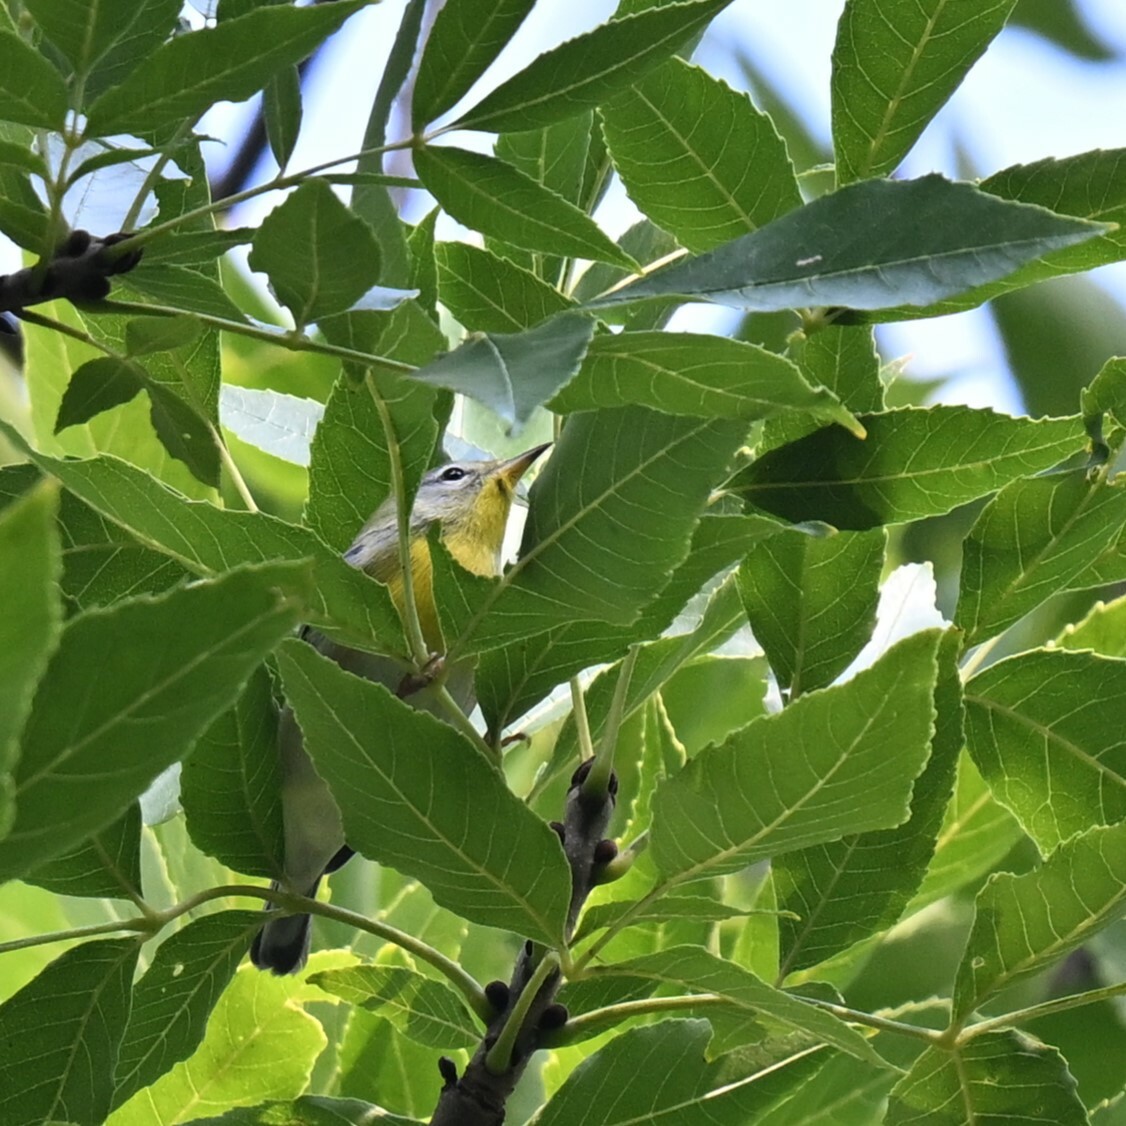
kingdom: Animalia
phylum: Chordata
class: Aves
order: Passeriformes
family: Parulidae
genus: Setophaga
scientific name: Setophaga americana
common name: Northern parula
